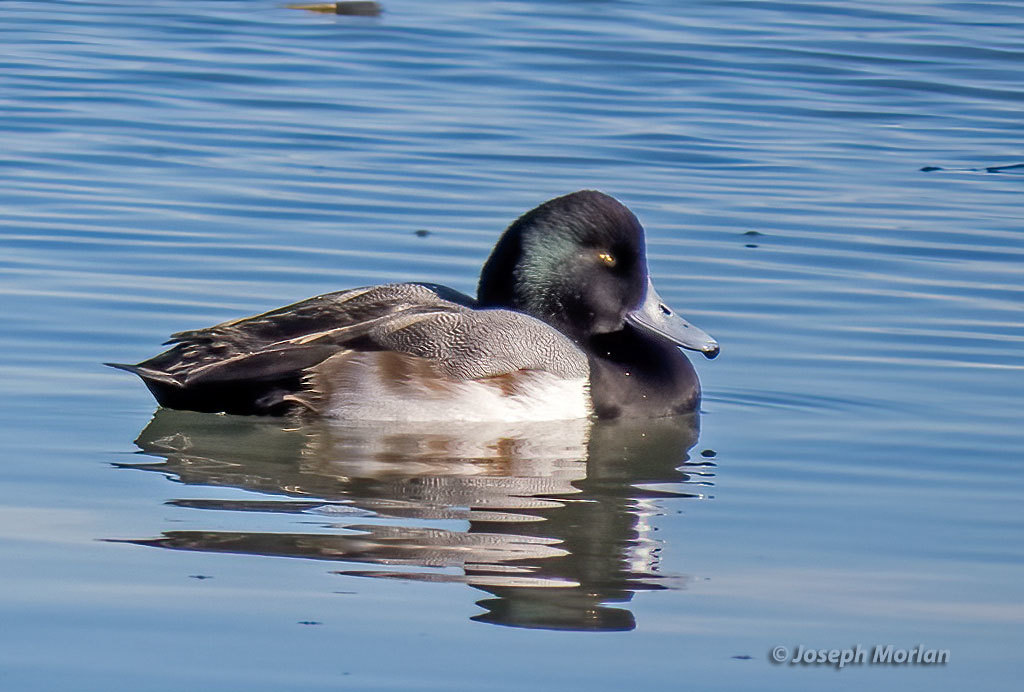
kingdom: Animalia
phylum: Chordata
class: Aves
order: Anseriformes
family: Anatidae
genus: Aythya
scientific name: Aythya marila
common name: Greater scaup
